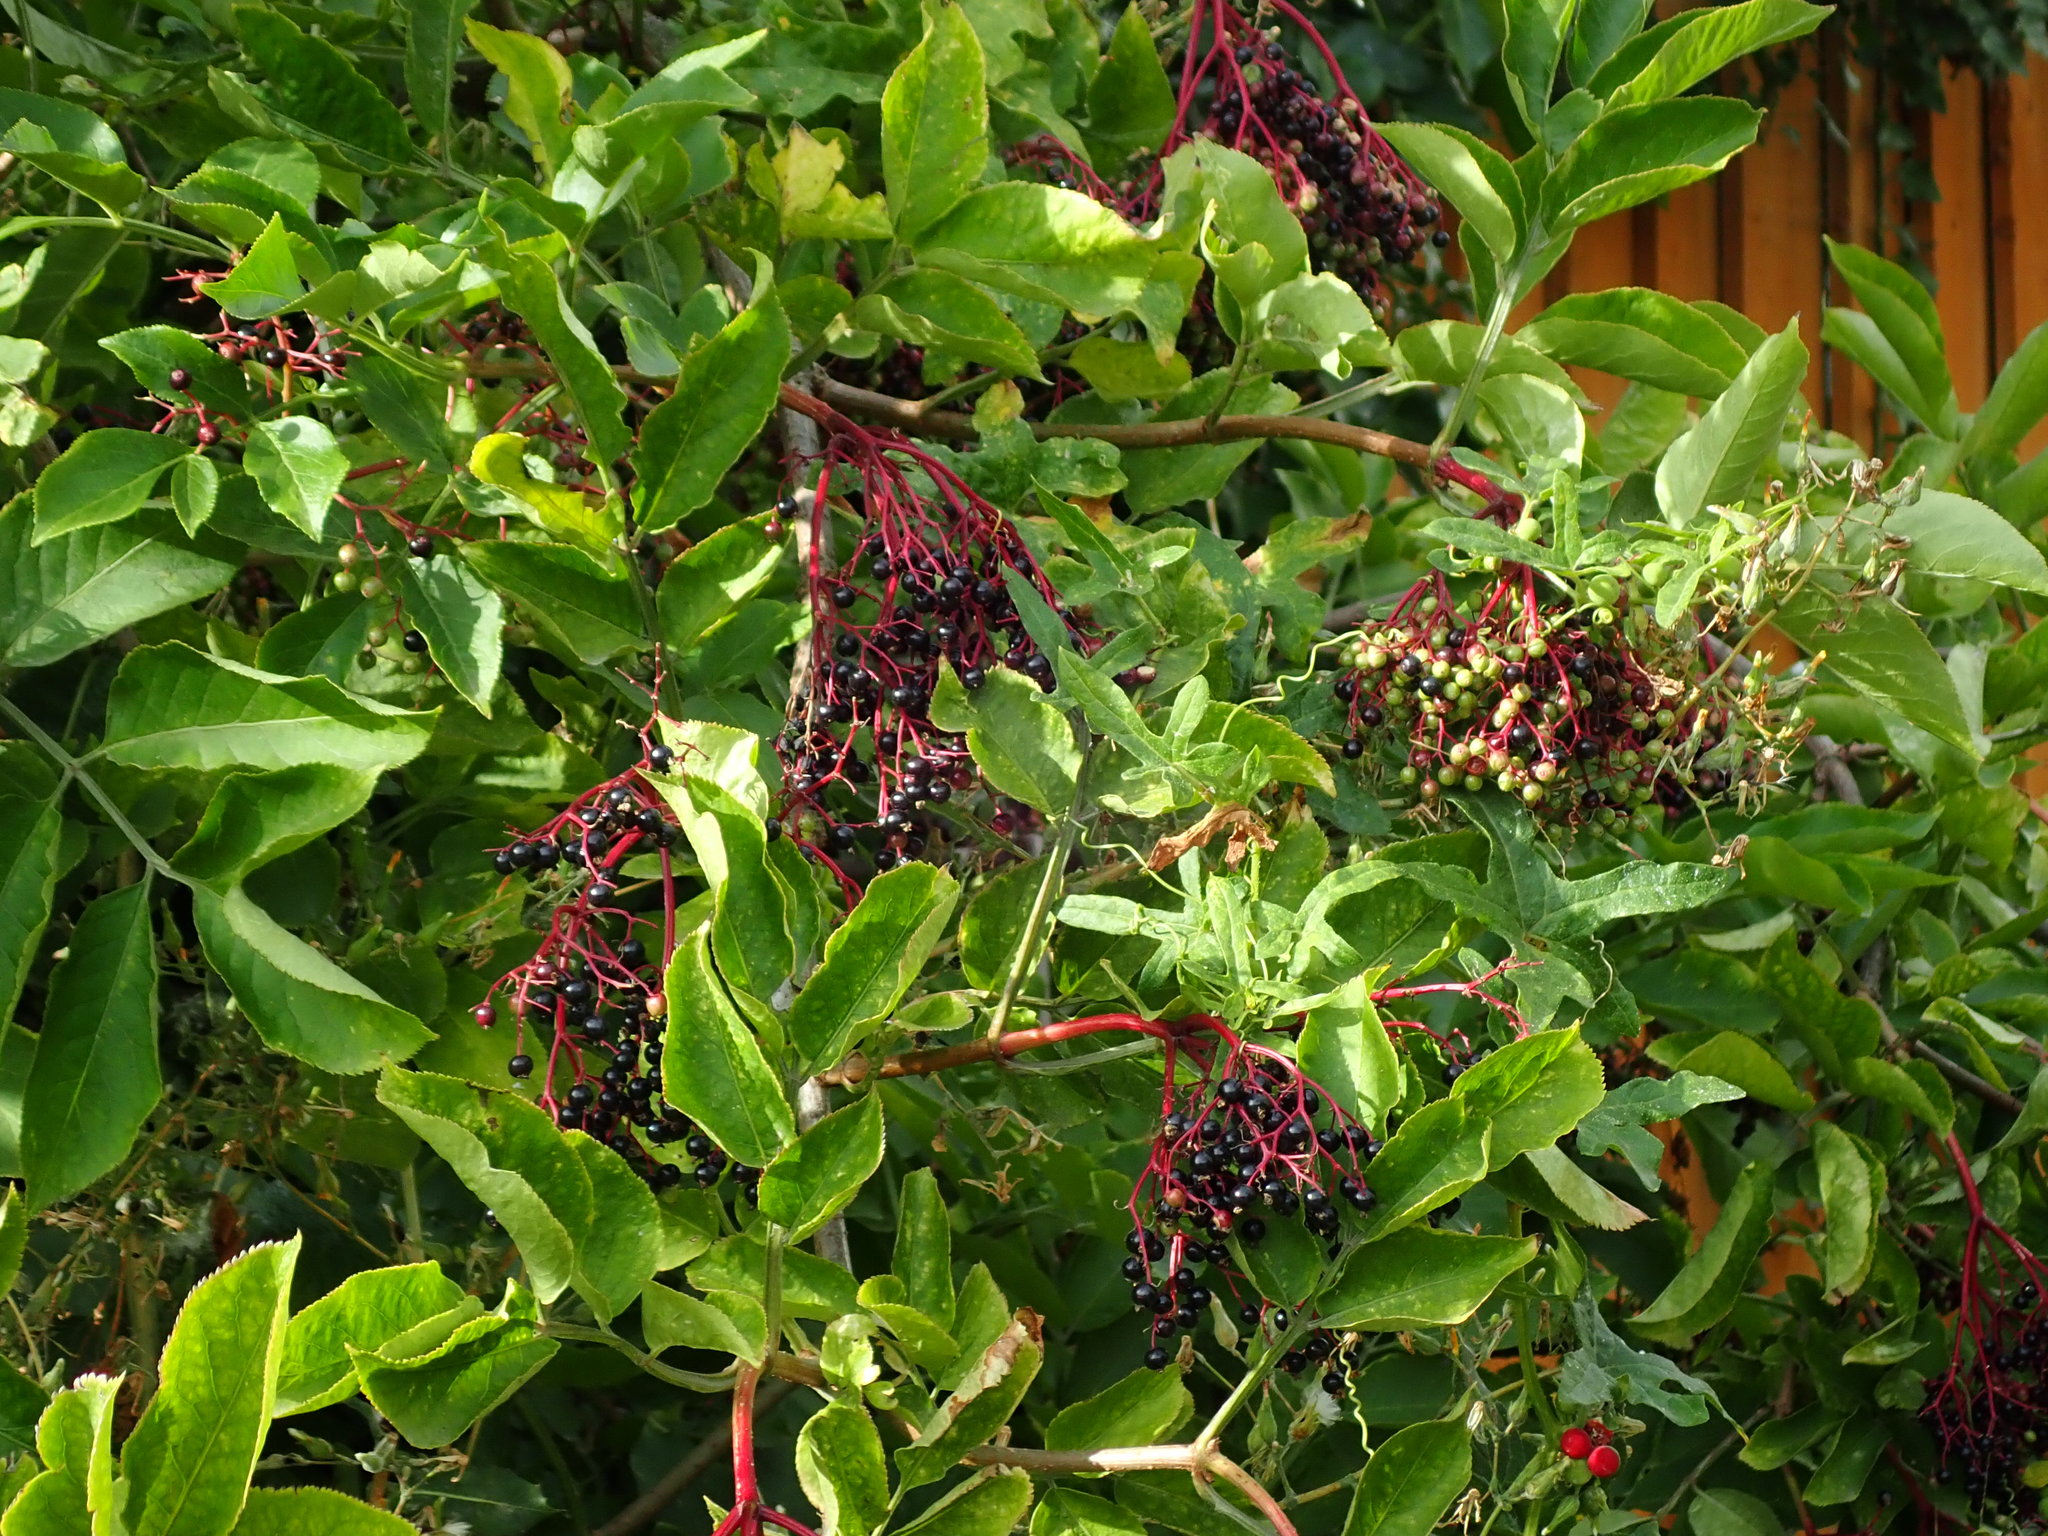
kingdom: Plantae
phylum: Tracheophyta
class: Magnoliopsida
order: Dipsacales
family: Viburnaceae
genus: Sambucus
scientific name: Sambucus nigra
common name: Elder
